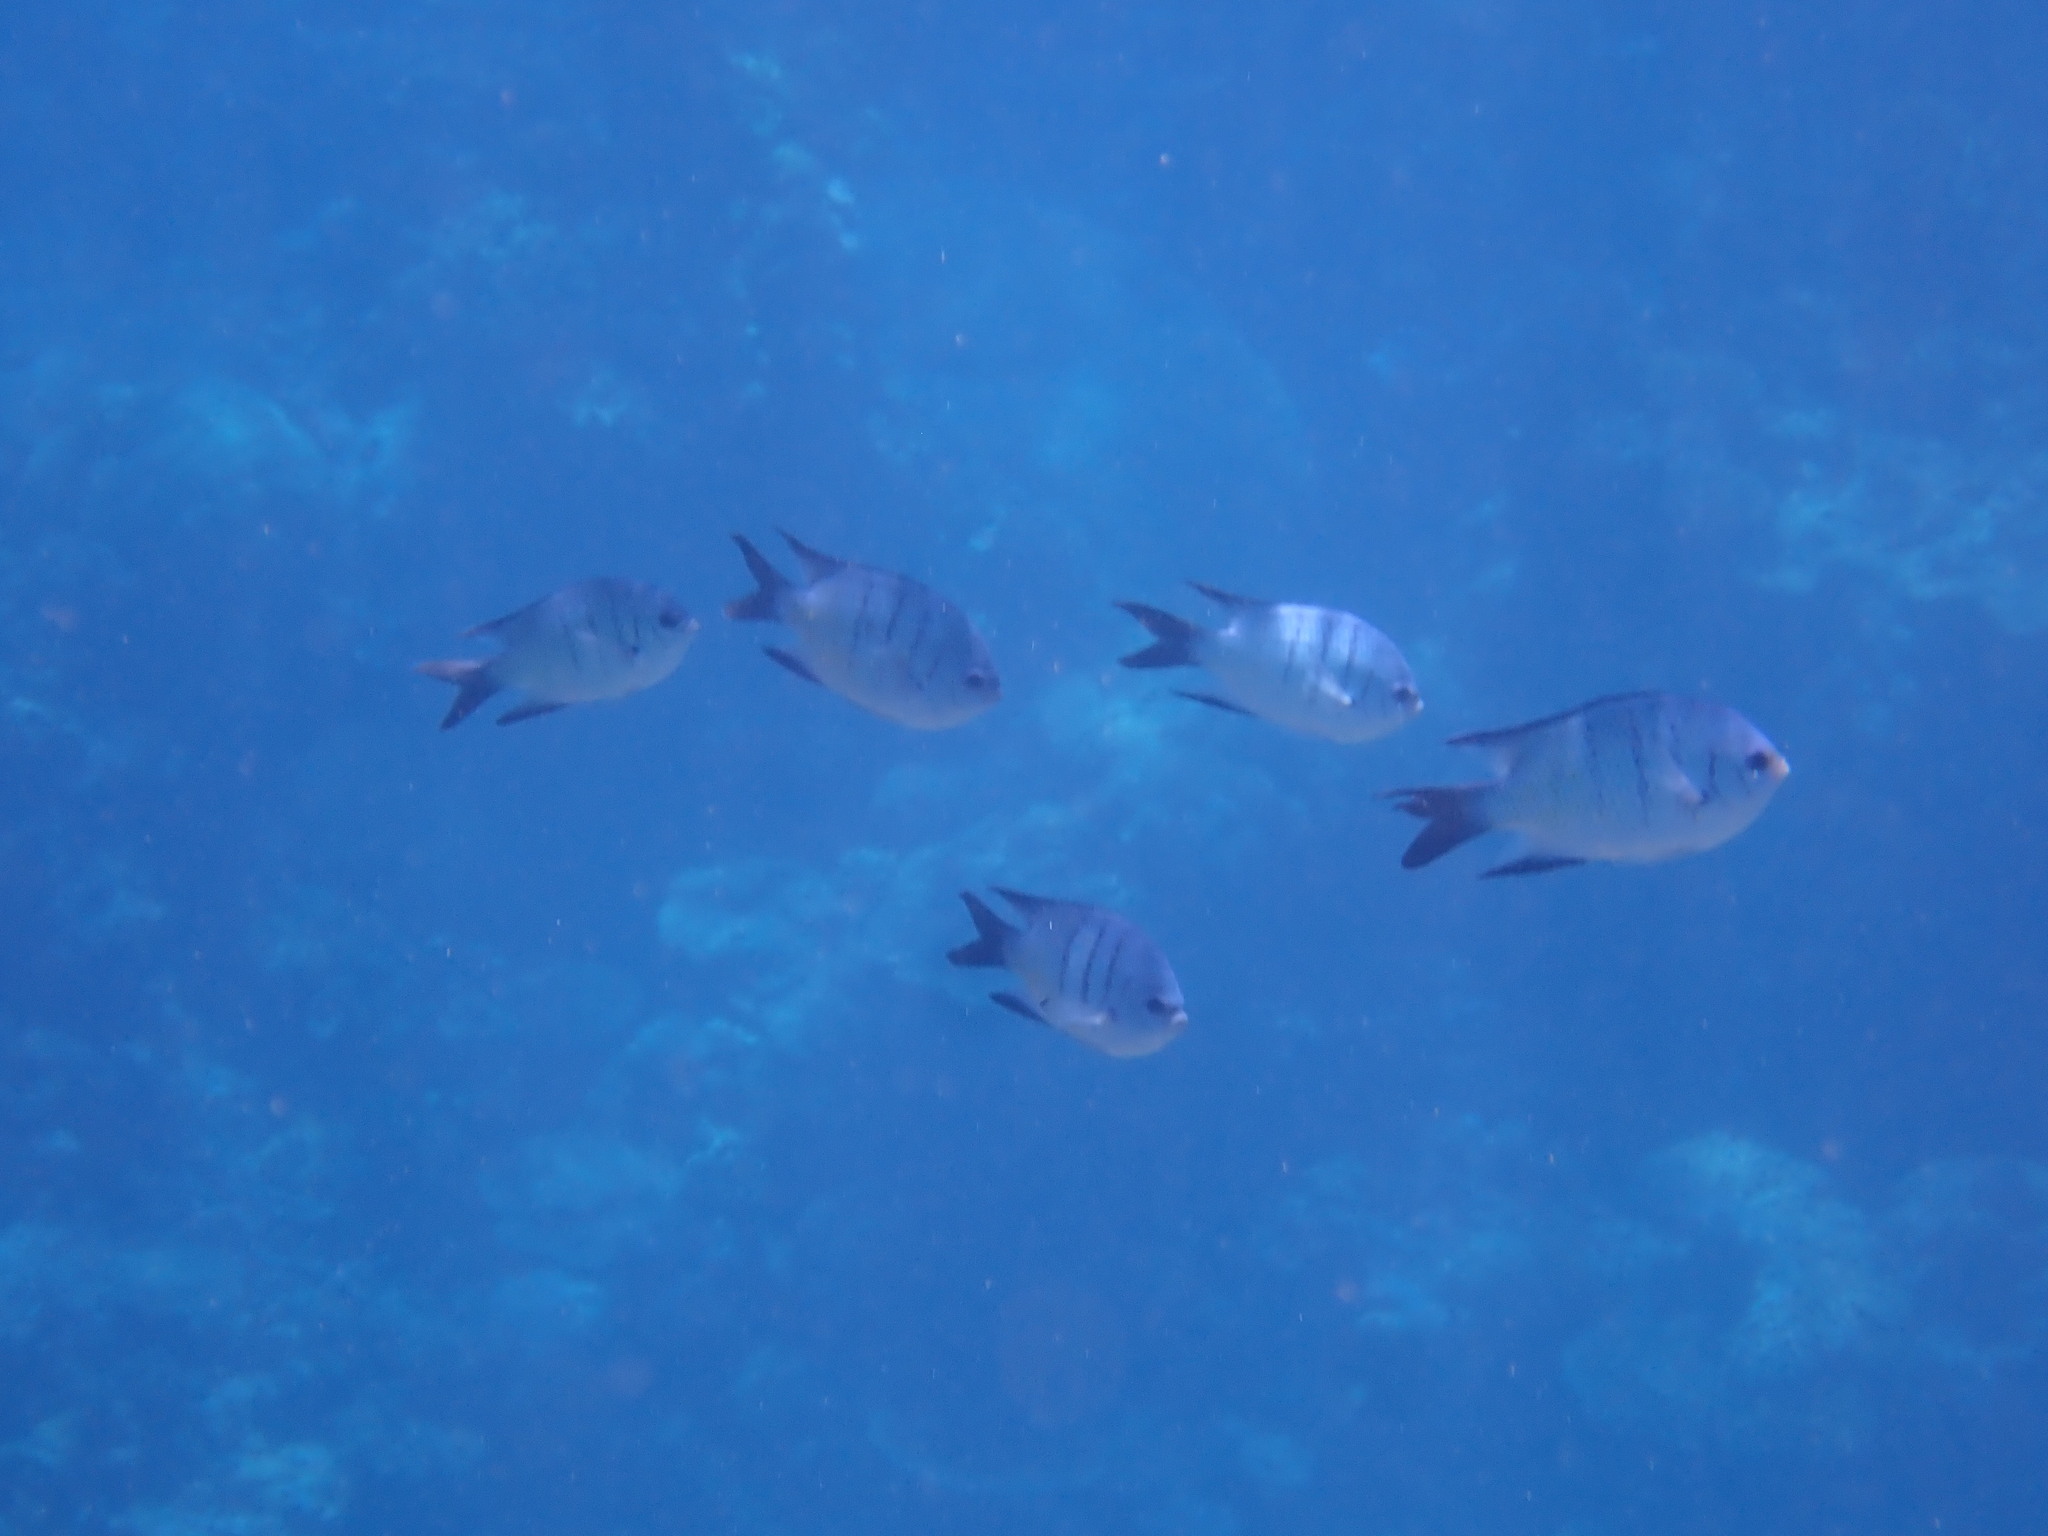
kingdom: Animalia
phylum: Chordata
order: Perciformes
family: Pomacentridae
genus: Abudefduf
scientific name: Abudefduf whitleyi
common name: Whitley's seargent
